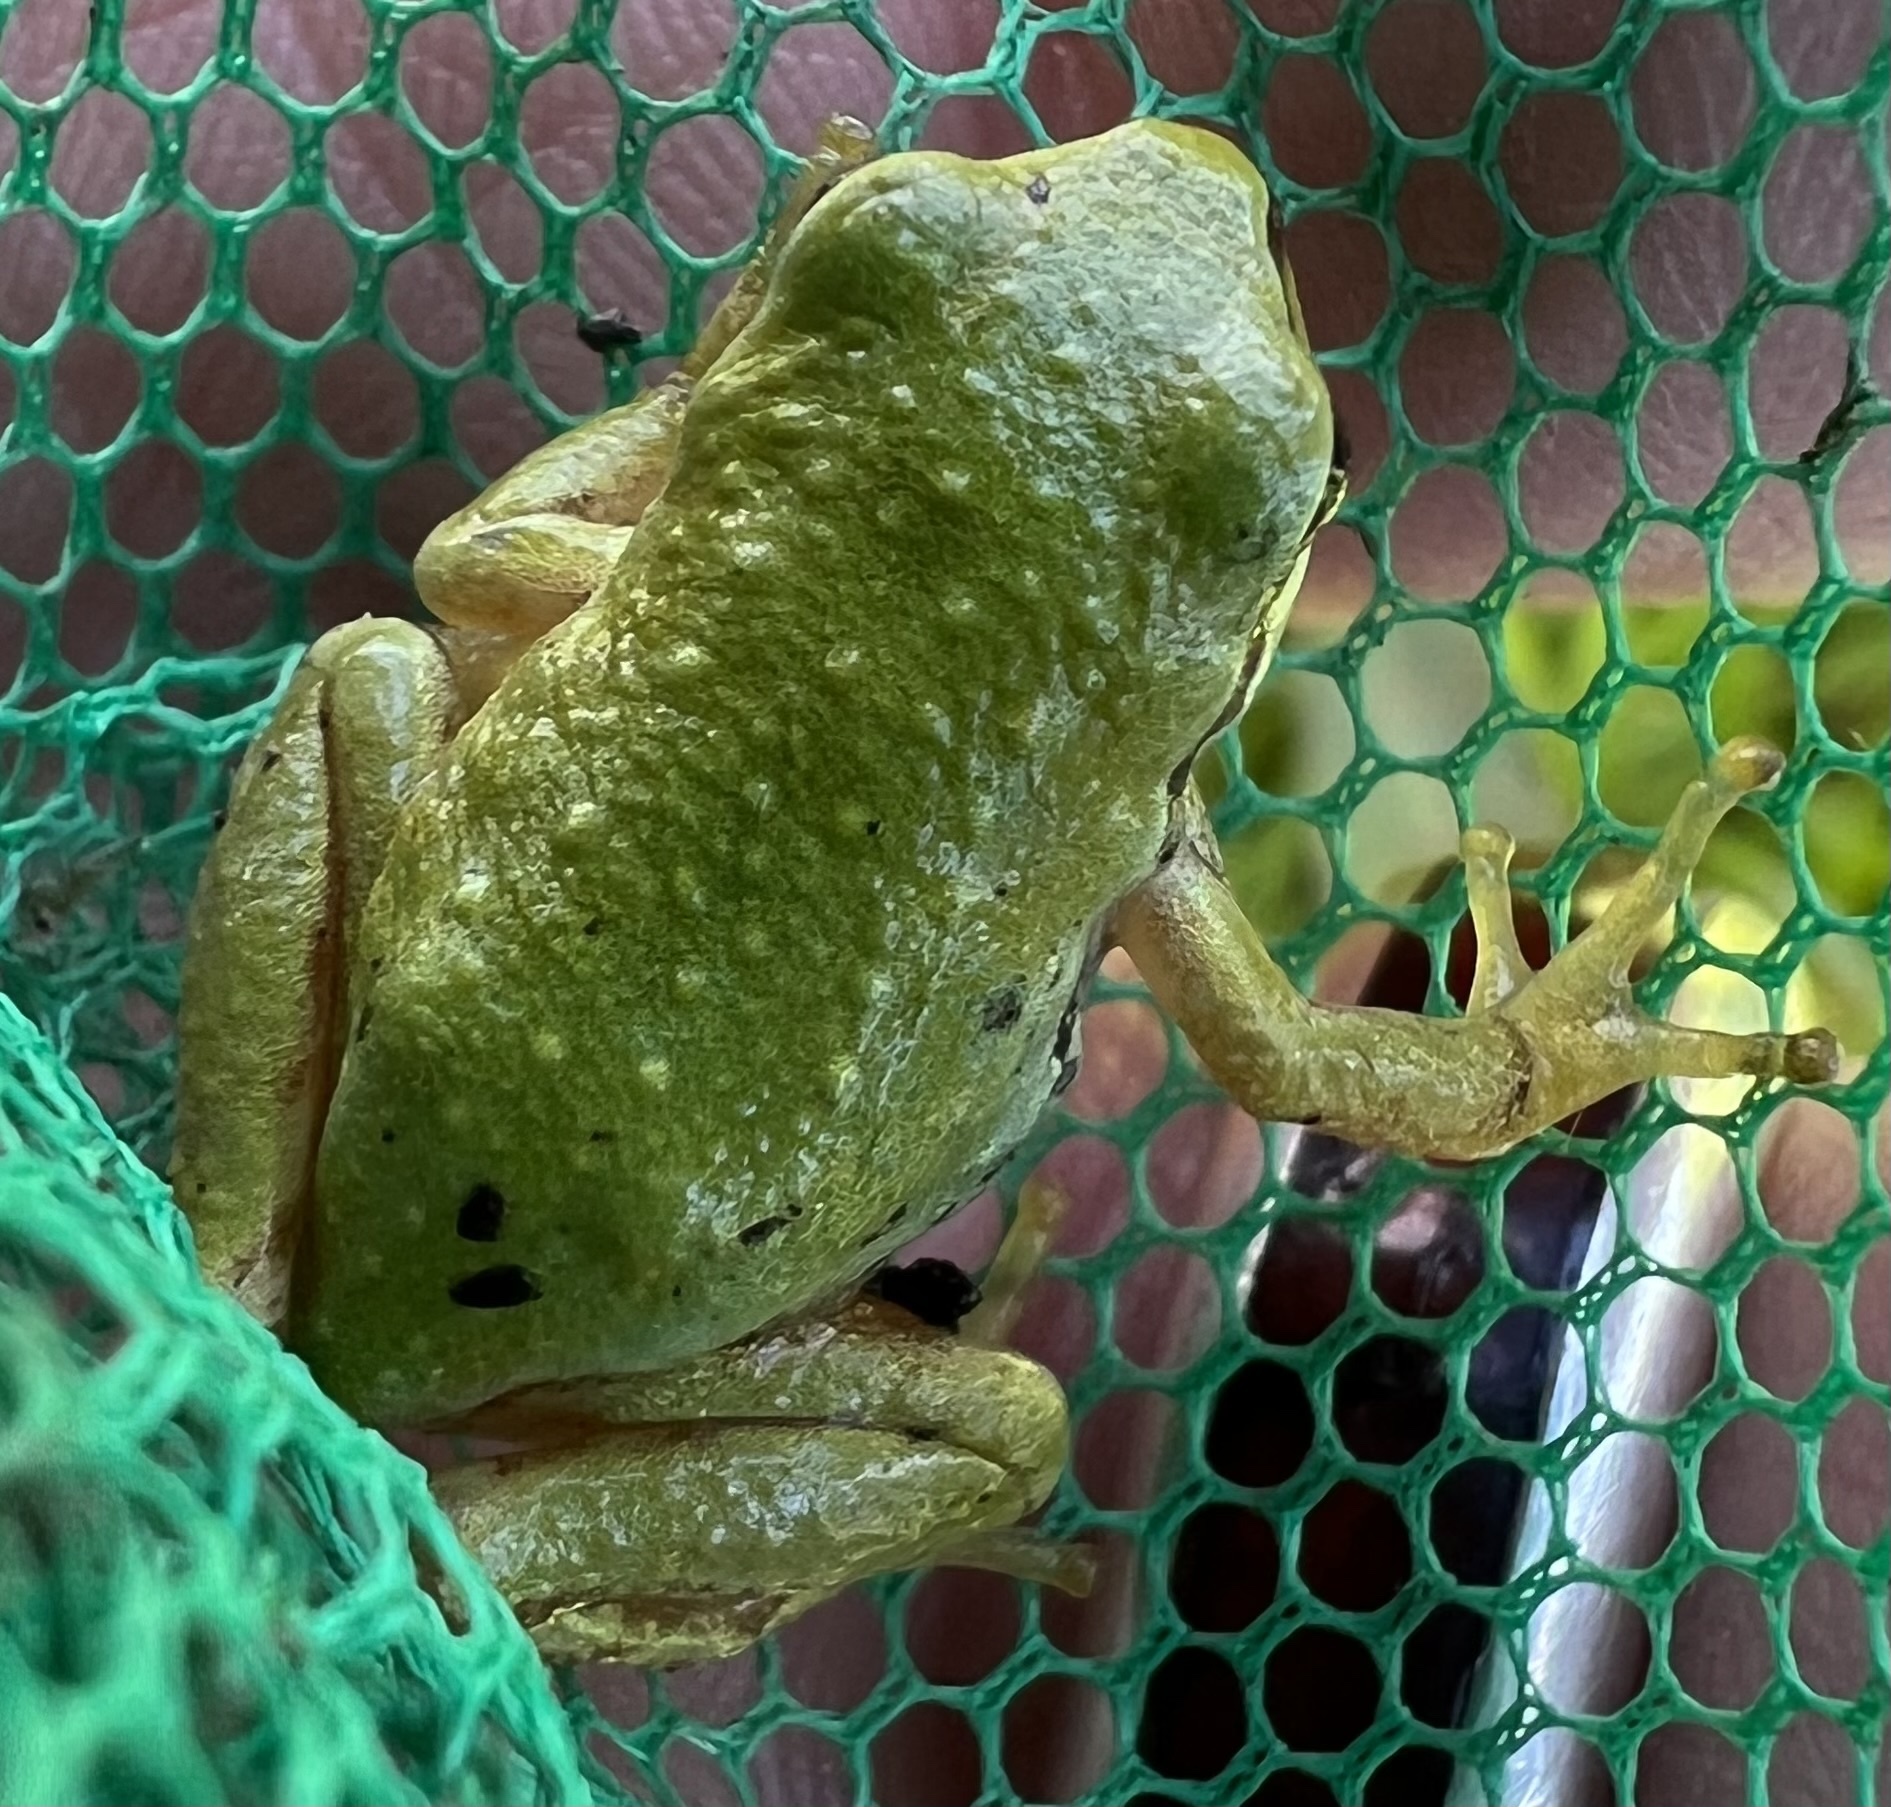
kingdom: Animalia
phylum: Chordata
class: Amphibia
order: Anura
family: Hylidae
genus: Pseudacris
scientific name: Pseudacris regilla
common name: Pacific chorus frog
